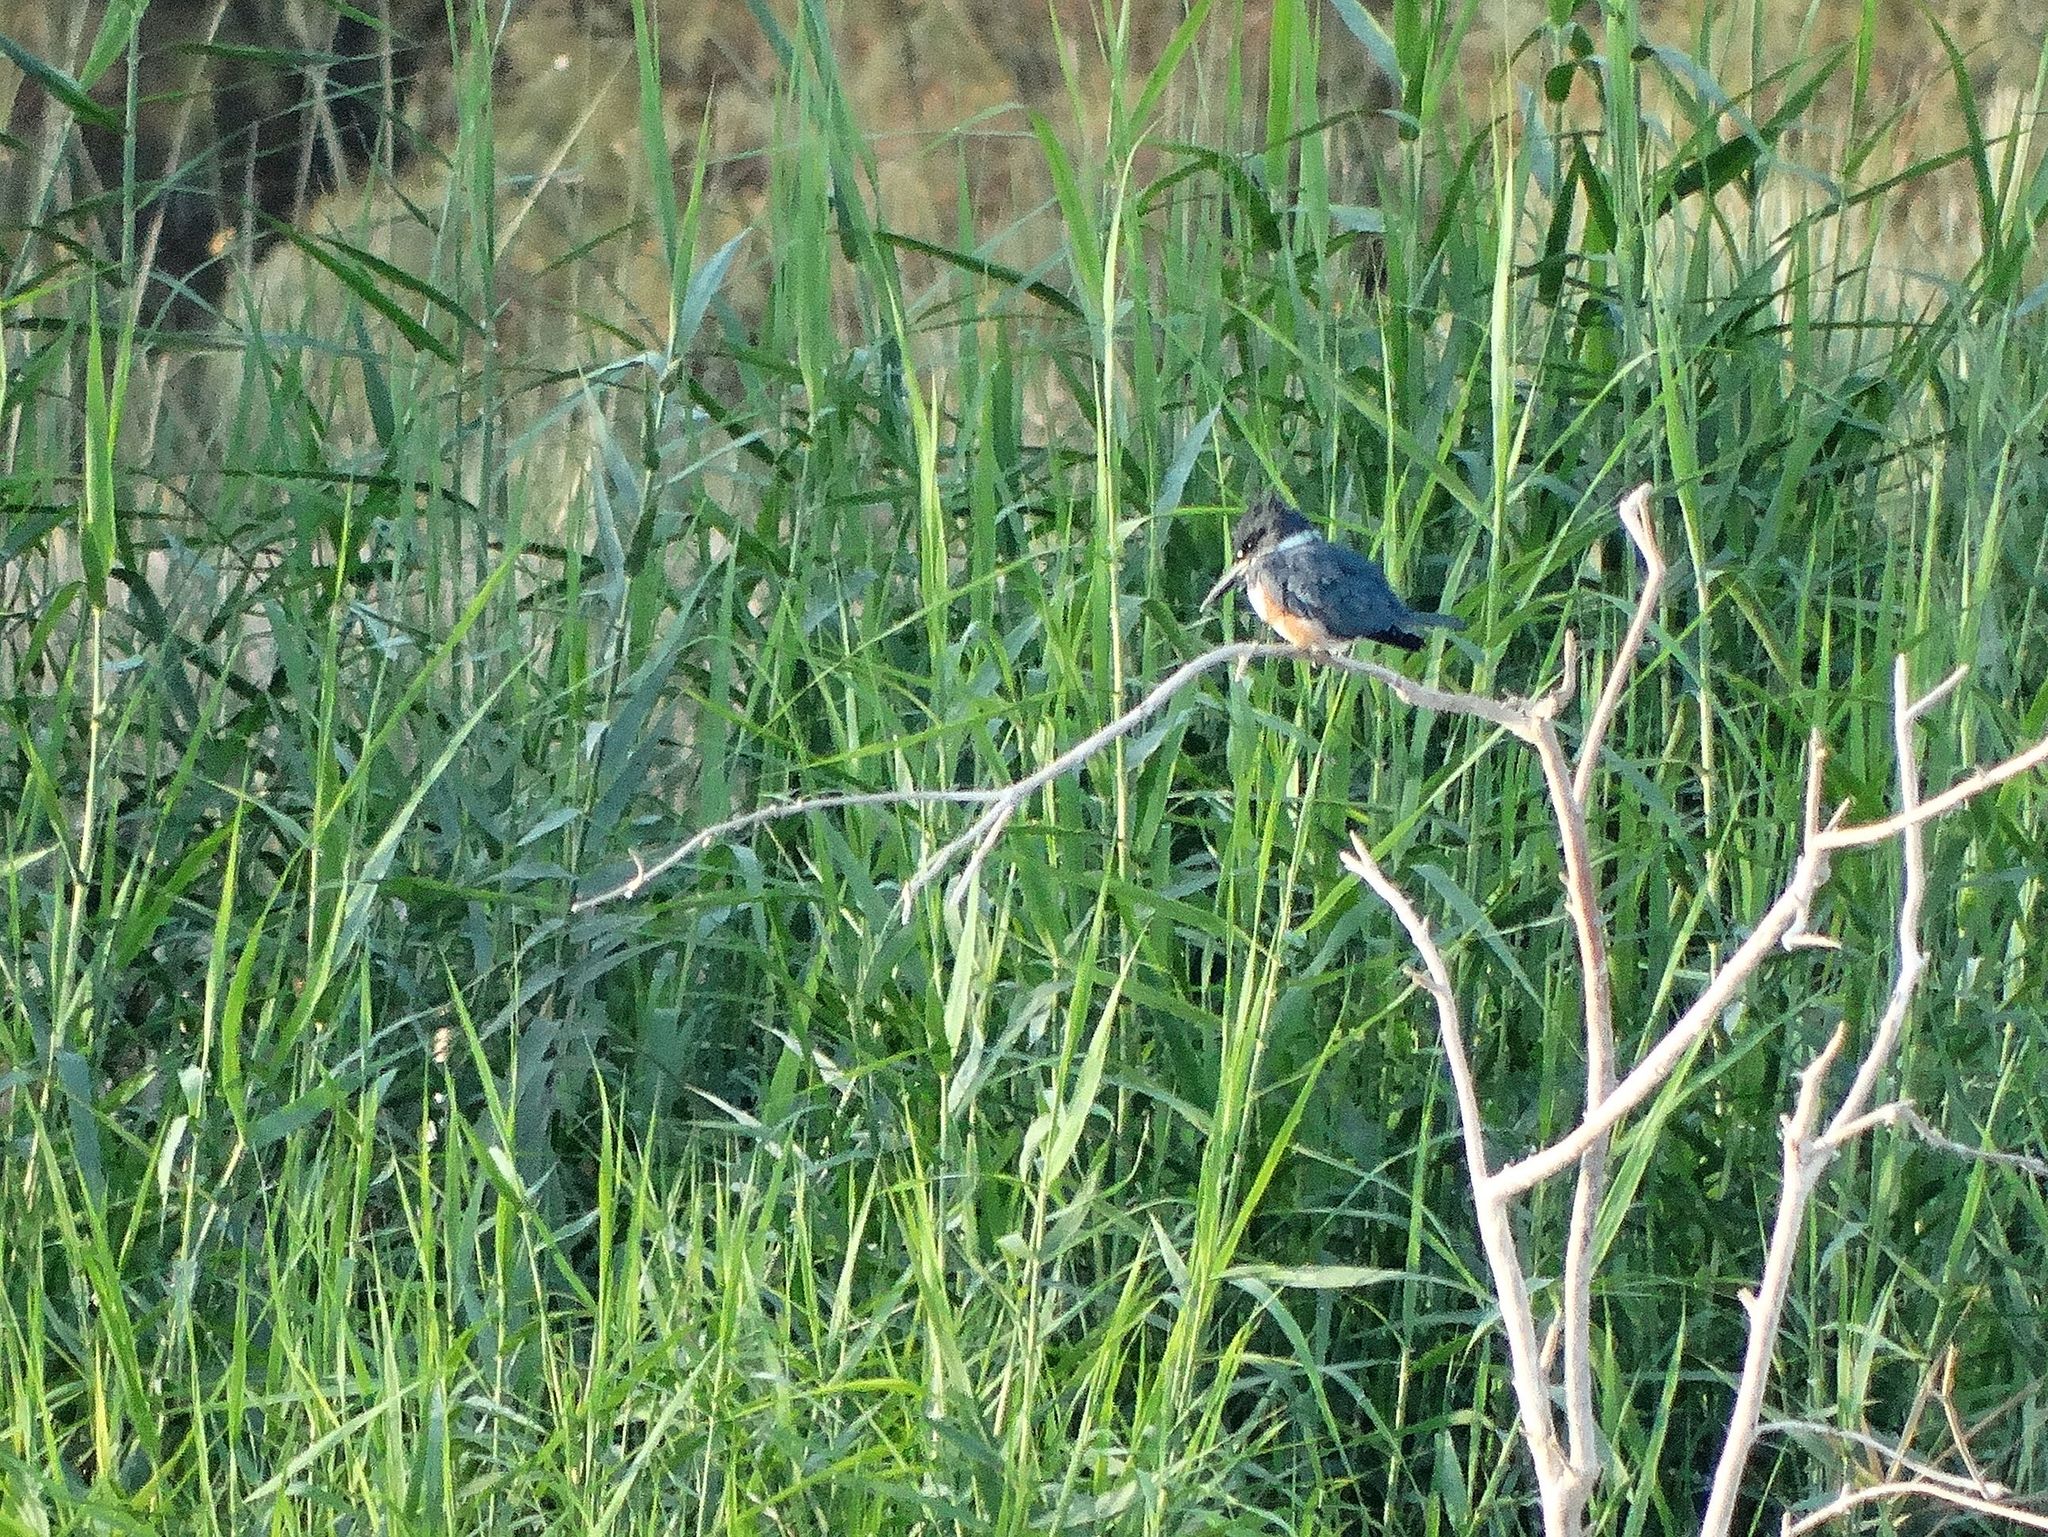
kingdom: Animalia
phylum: Chordata
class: Aves
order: Coraciiformes
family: Alcedinidae
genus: Megaceryle
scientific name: Megaceryle alcyon
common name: Belted kingfisher
